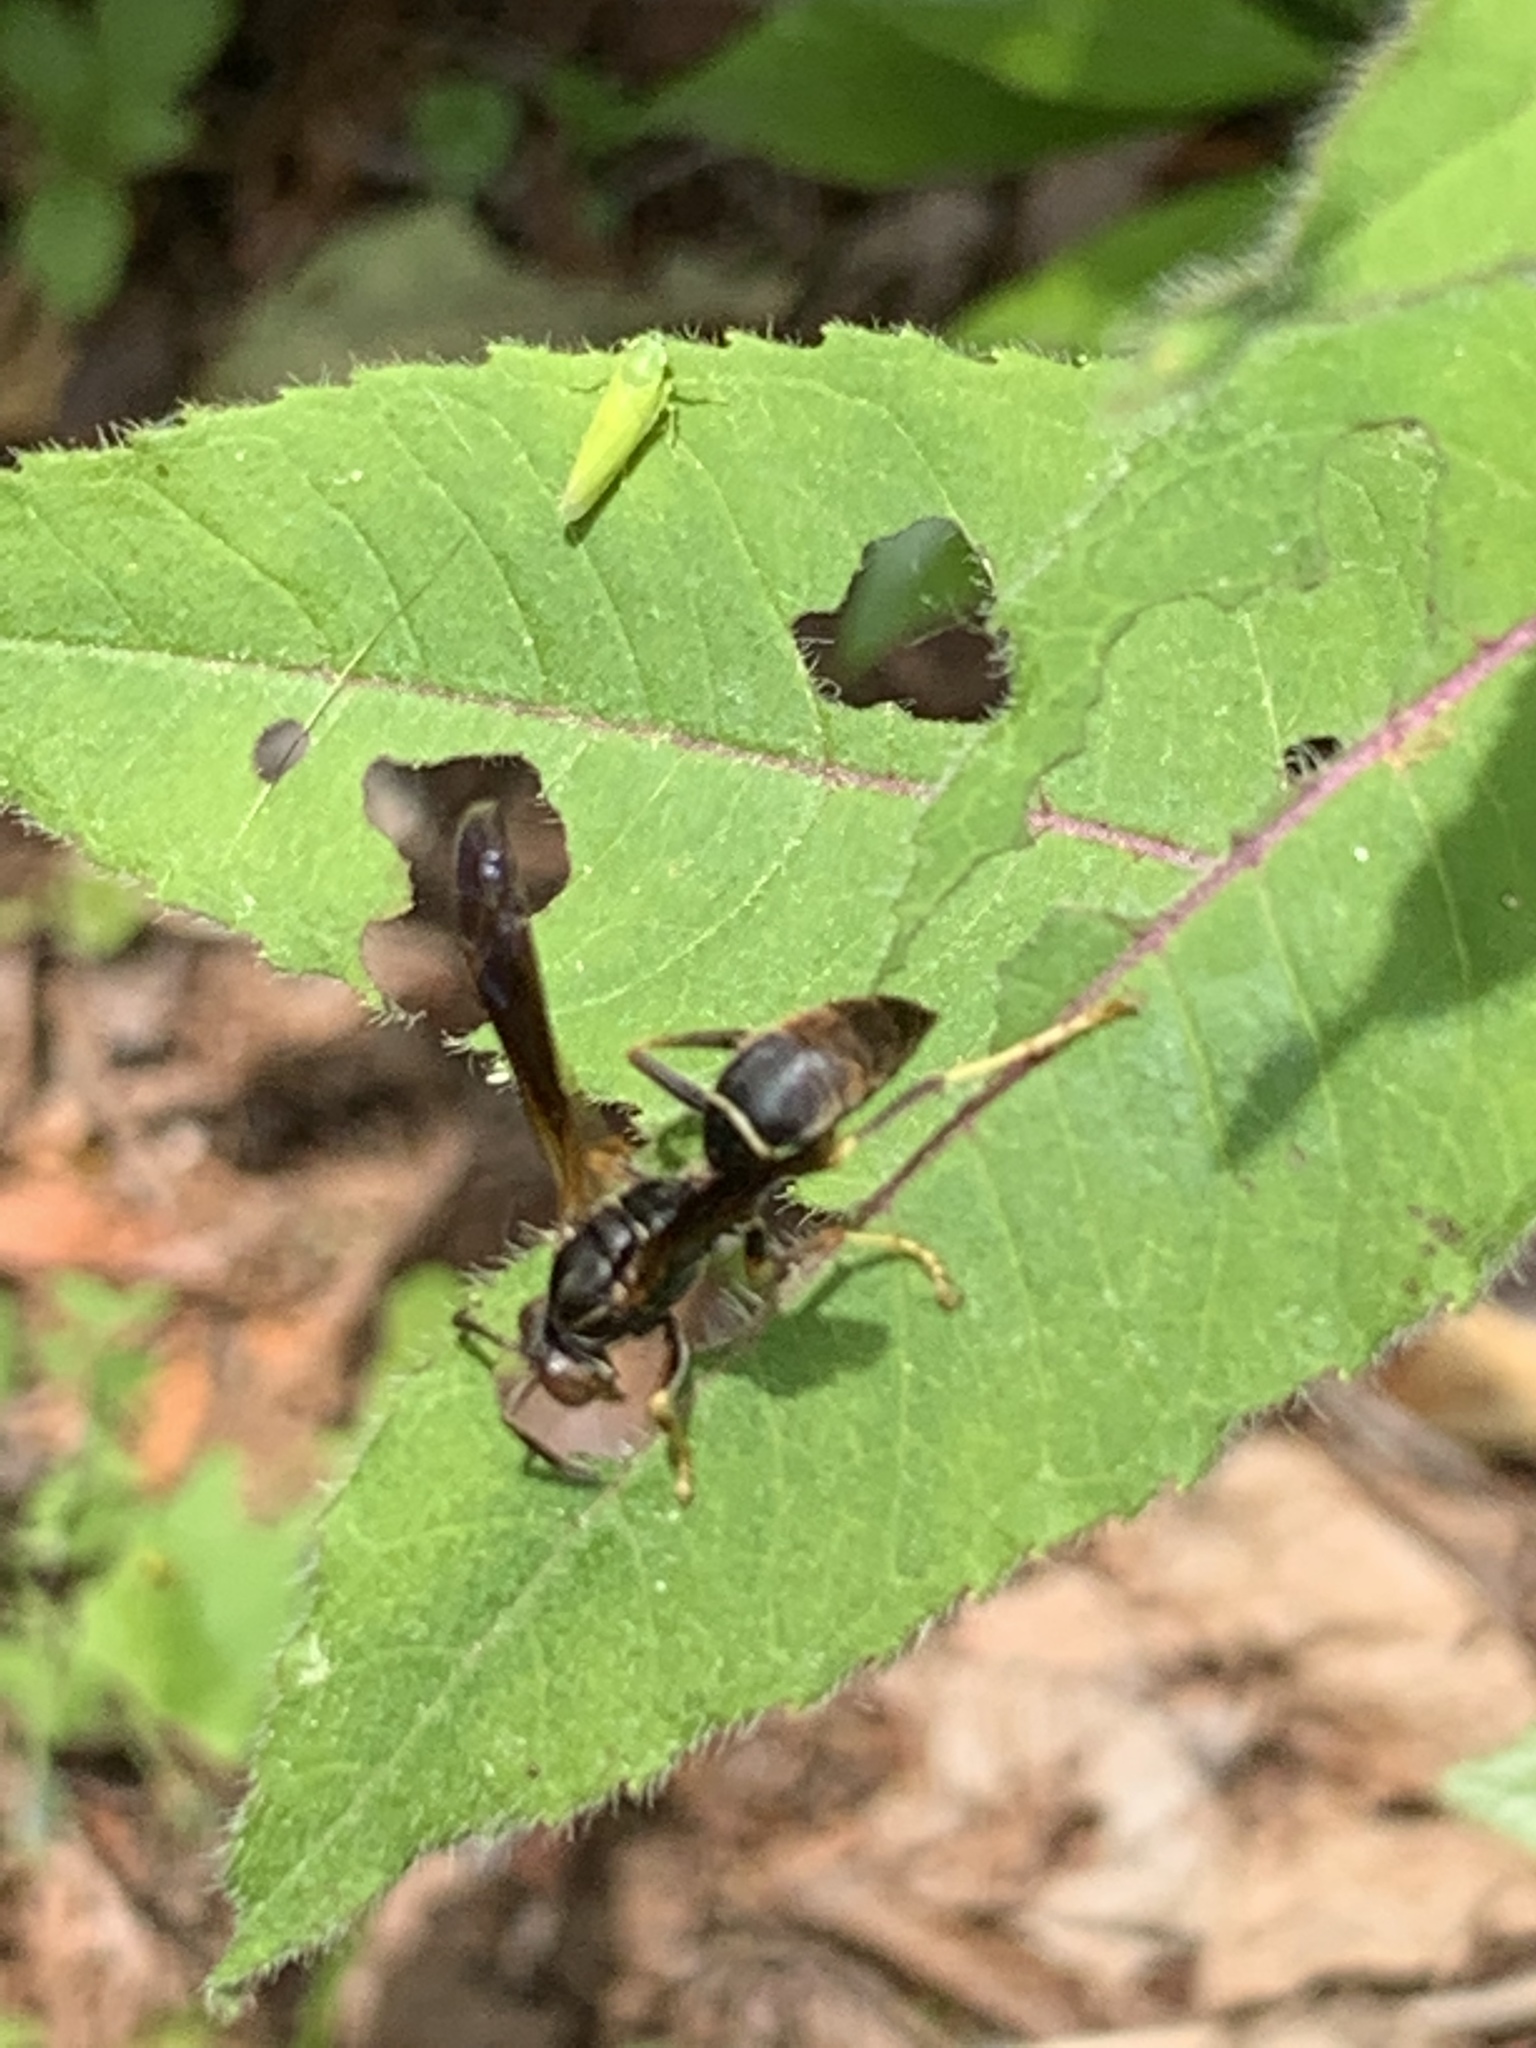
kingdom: Animalia
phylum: Arthropoda
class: Insecta
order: Hymenoptera
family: Eumenidae
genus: Polistes
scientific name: Polistes fuscatus
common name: Dark paper wasp
